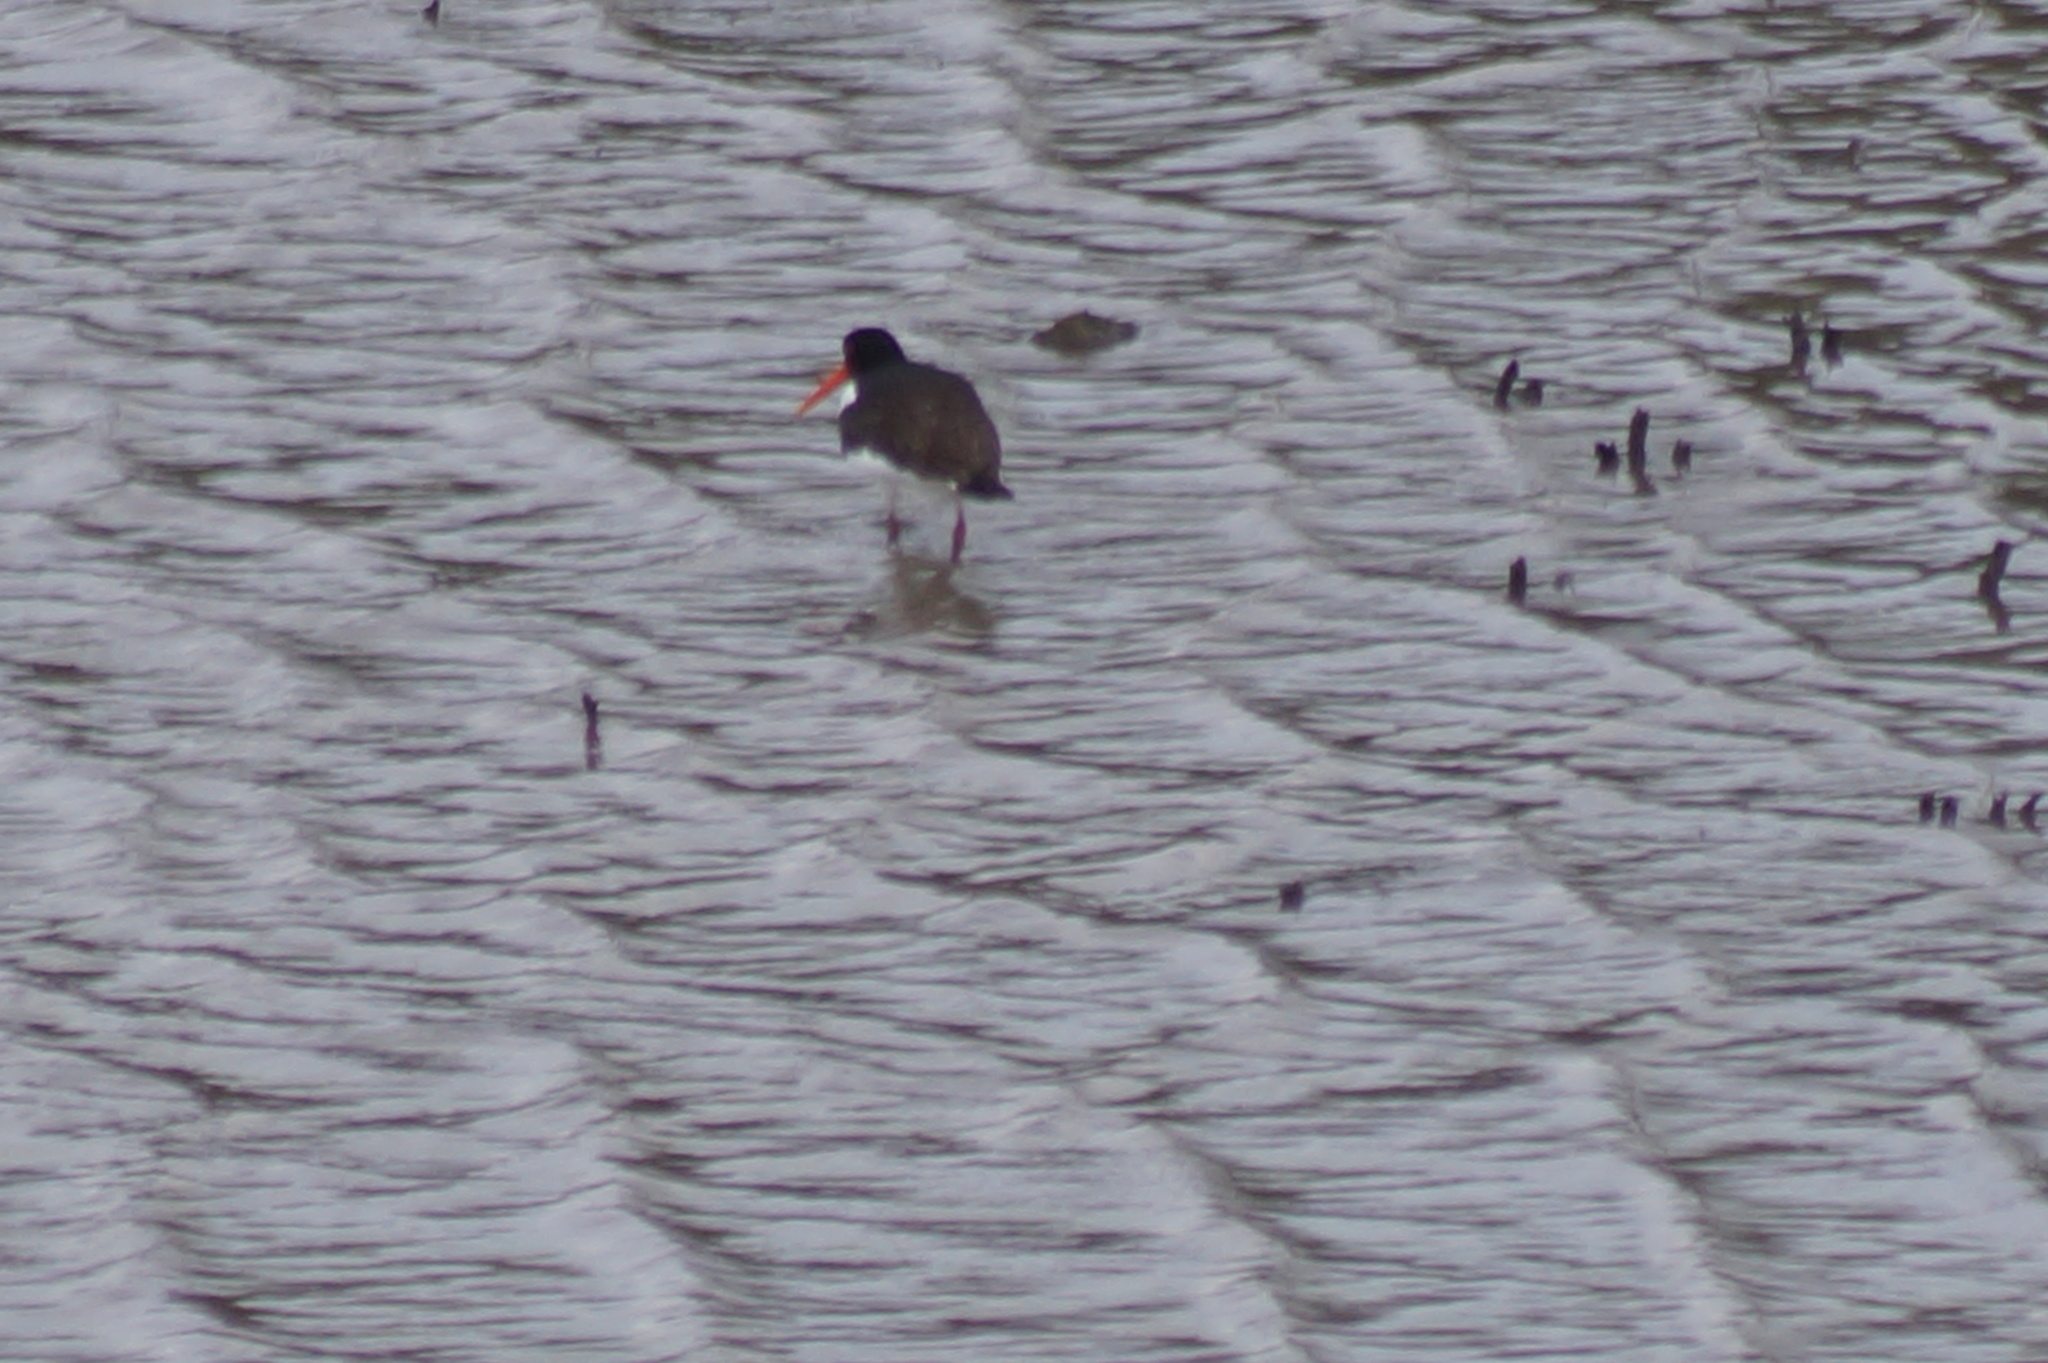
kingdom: Animalia
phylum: Chordata
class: Aves
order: Charadriiformes
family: Haematopodidae
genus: Haematopus
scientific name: Haematopus ostralegus
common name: Eurasian oystercatcher
